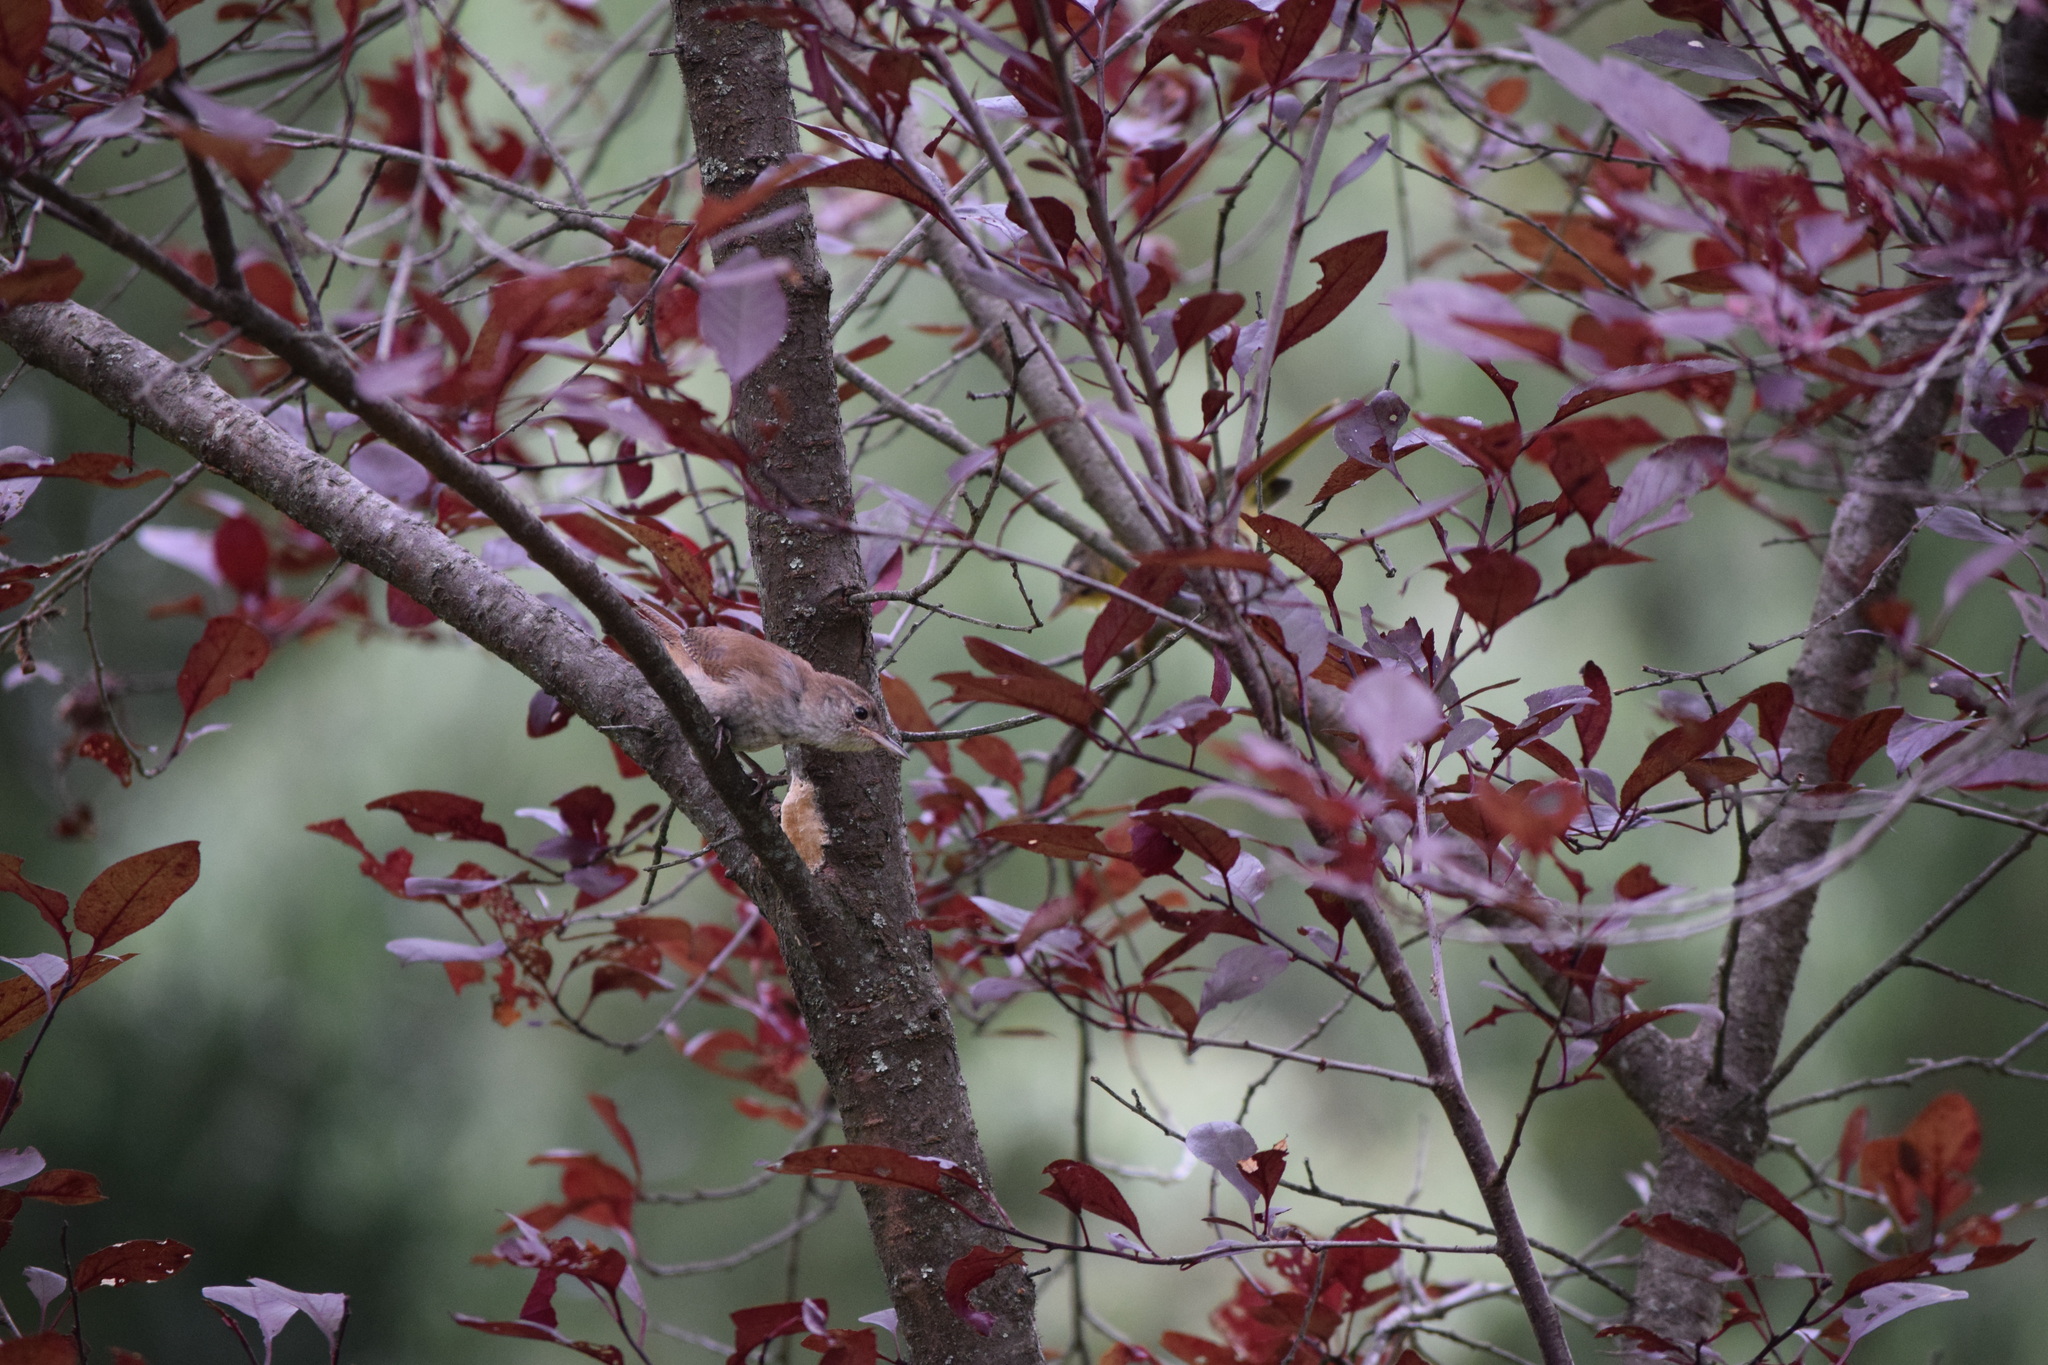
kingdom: Animalia
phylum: Chordata
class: Aves
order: Passeriformes
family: Troglodytidae
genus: Troglodytes
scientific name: Troglodytes aedon
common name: House wren
